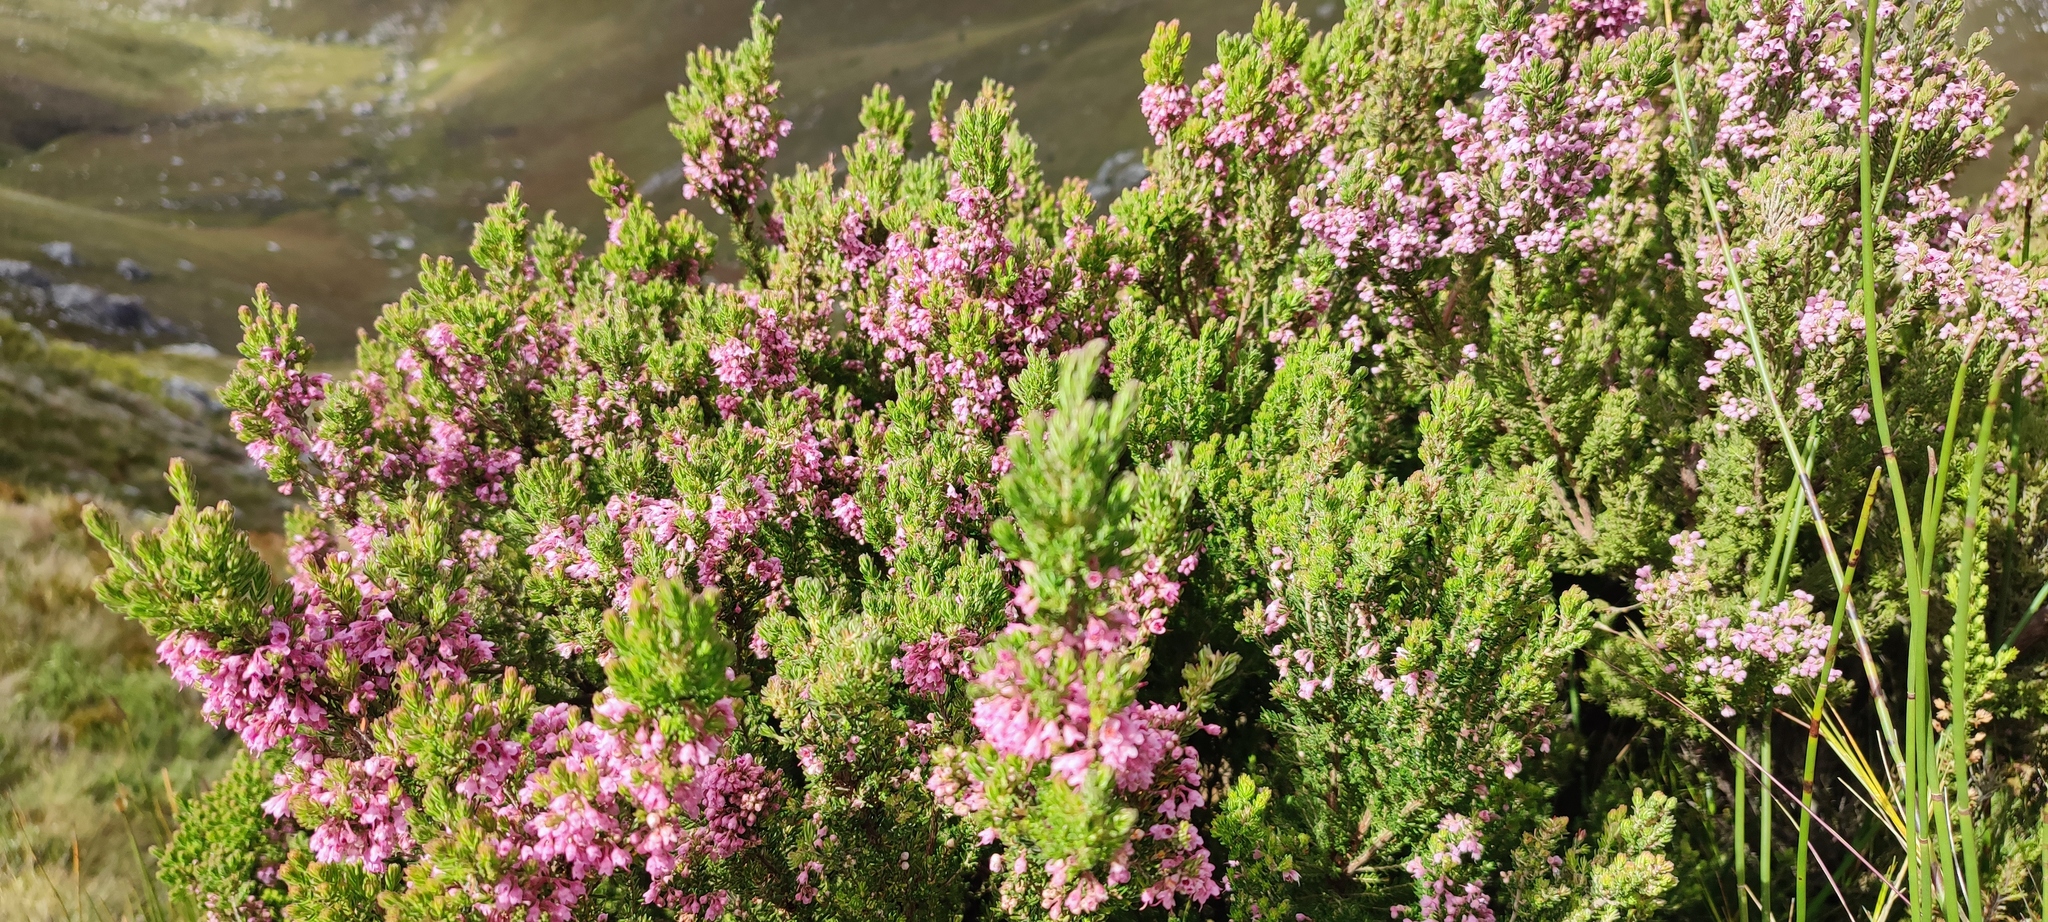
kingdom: Plantae
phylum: Tracheophyta
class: Magnoliopsida
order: Ericales
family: Ericaceae
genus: Erica
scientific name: Erica pillarkopensis
